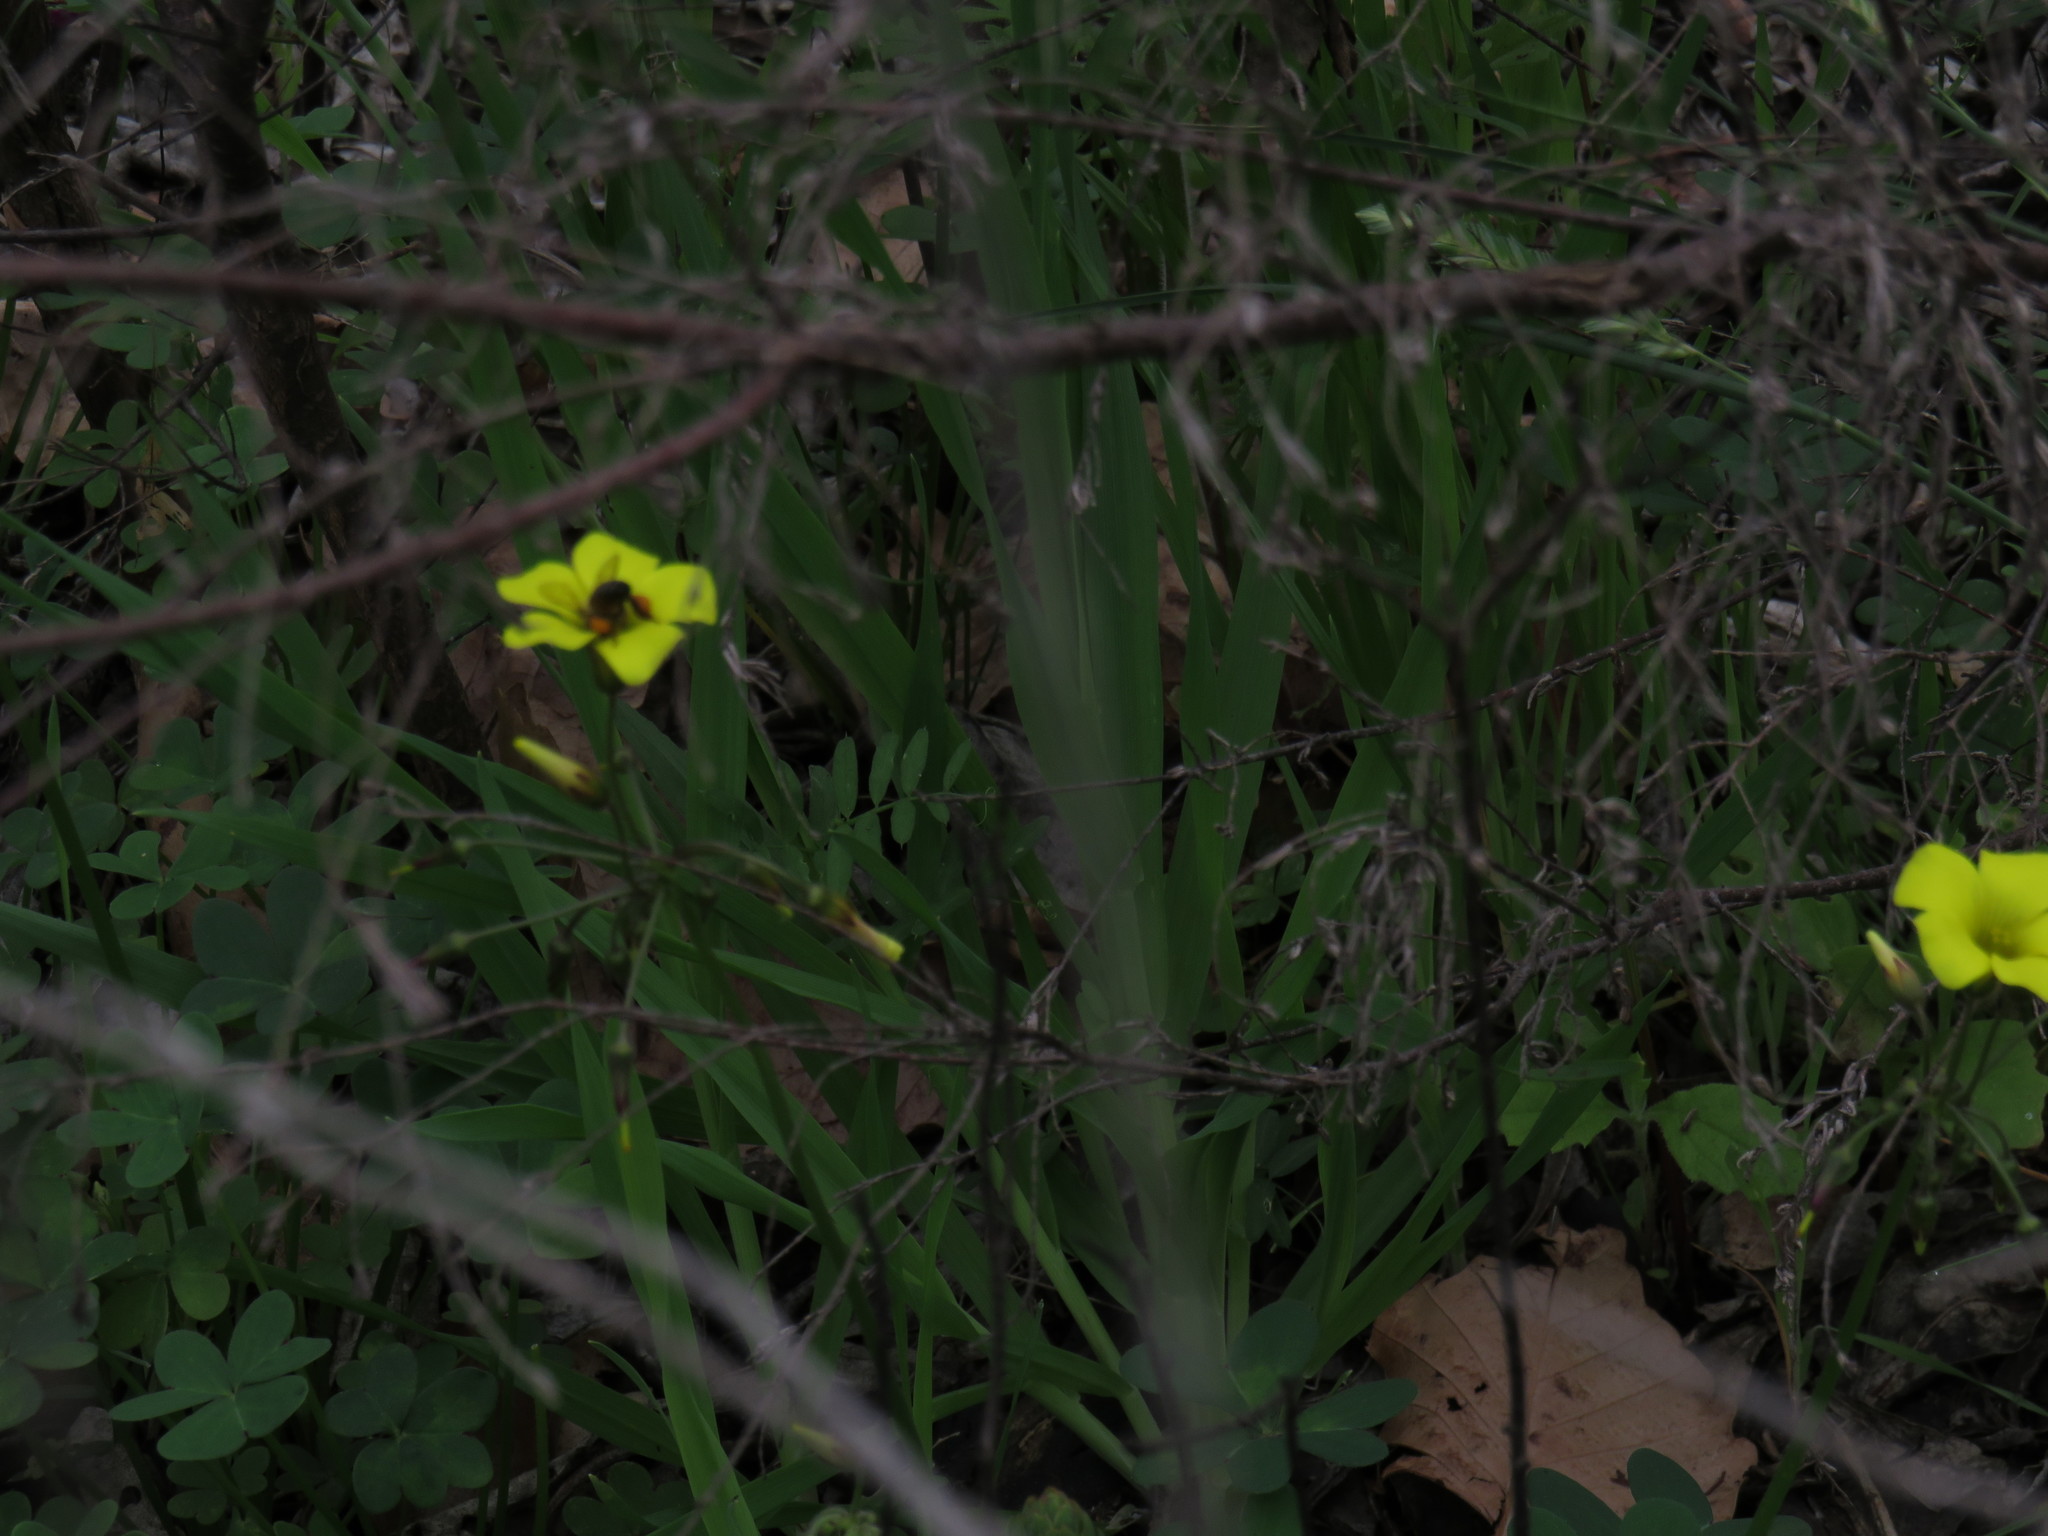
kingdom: Animalia
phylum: Arthropoda
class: Insecta
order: Hymenoptera
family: Apidae
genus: Apis
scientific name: Apis mellifera
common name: Honey bee
